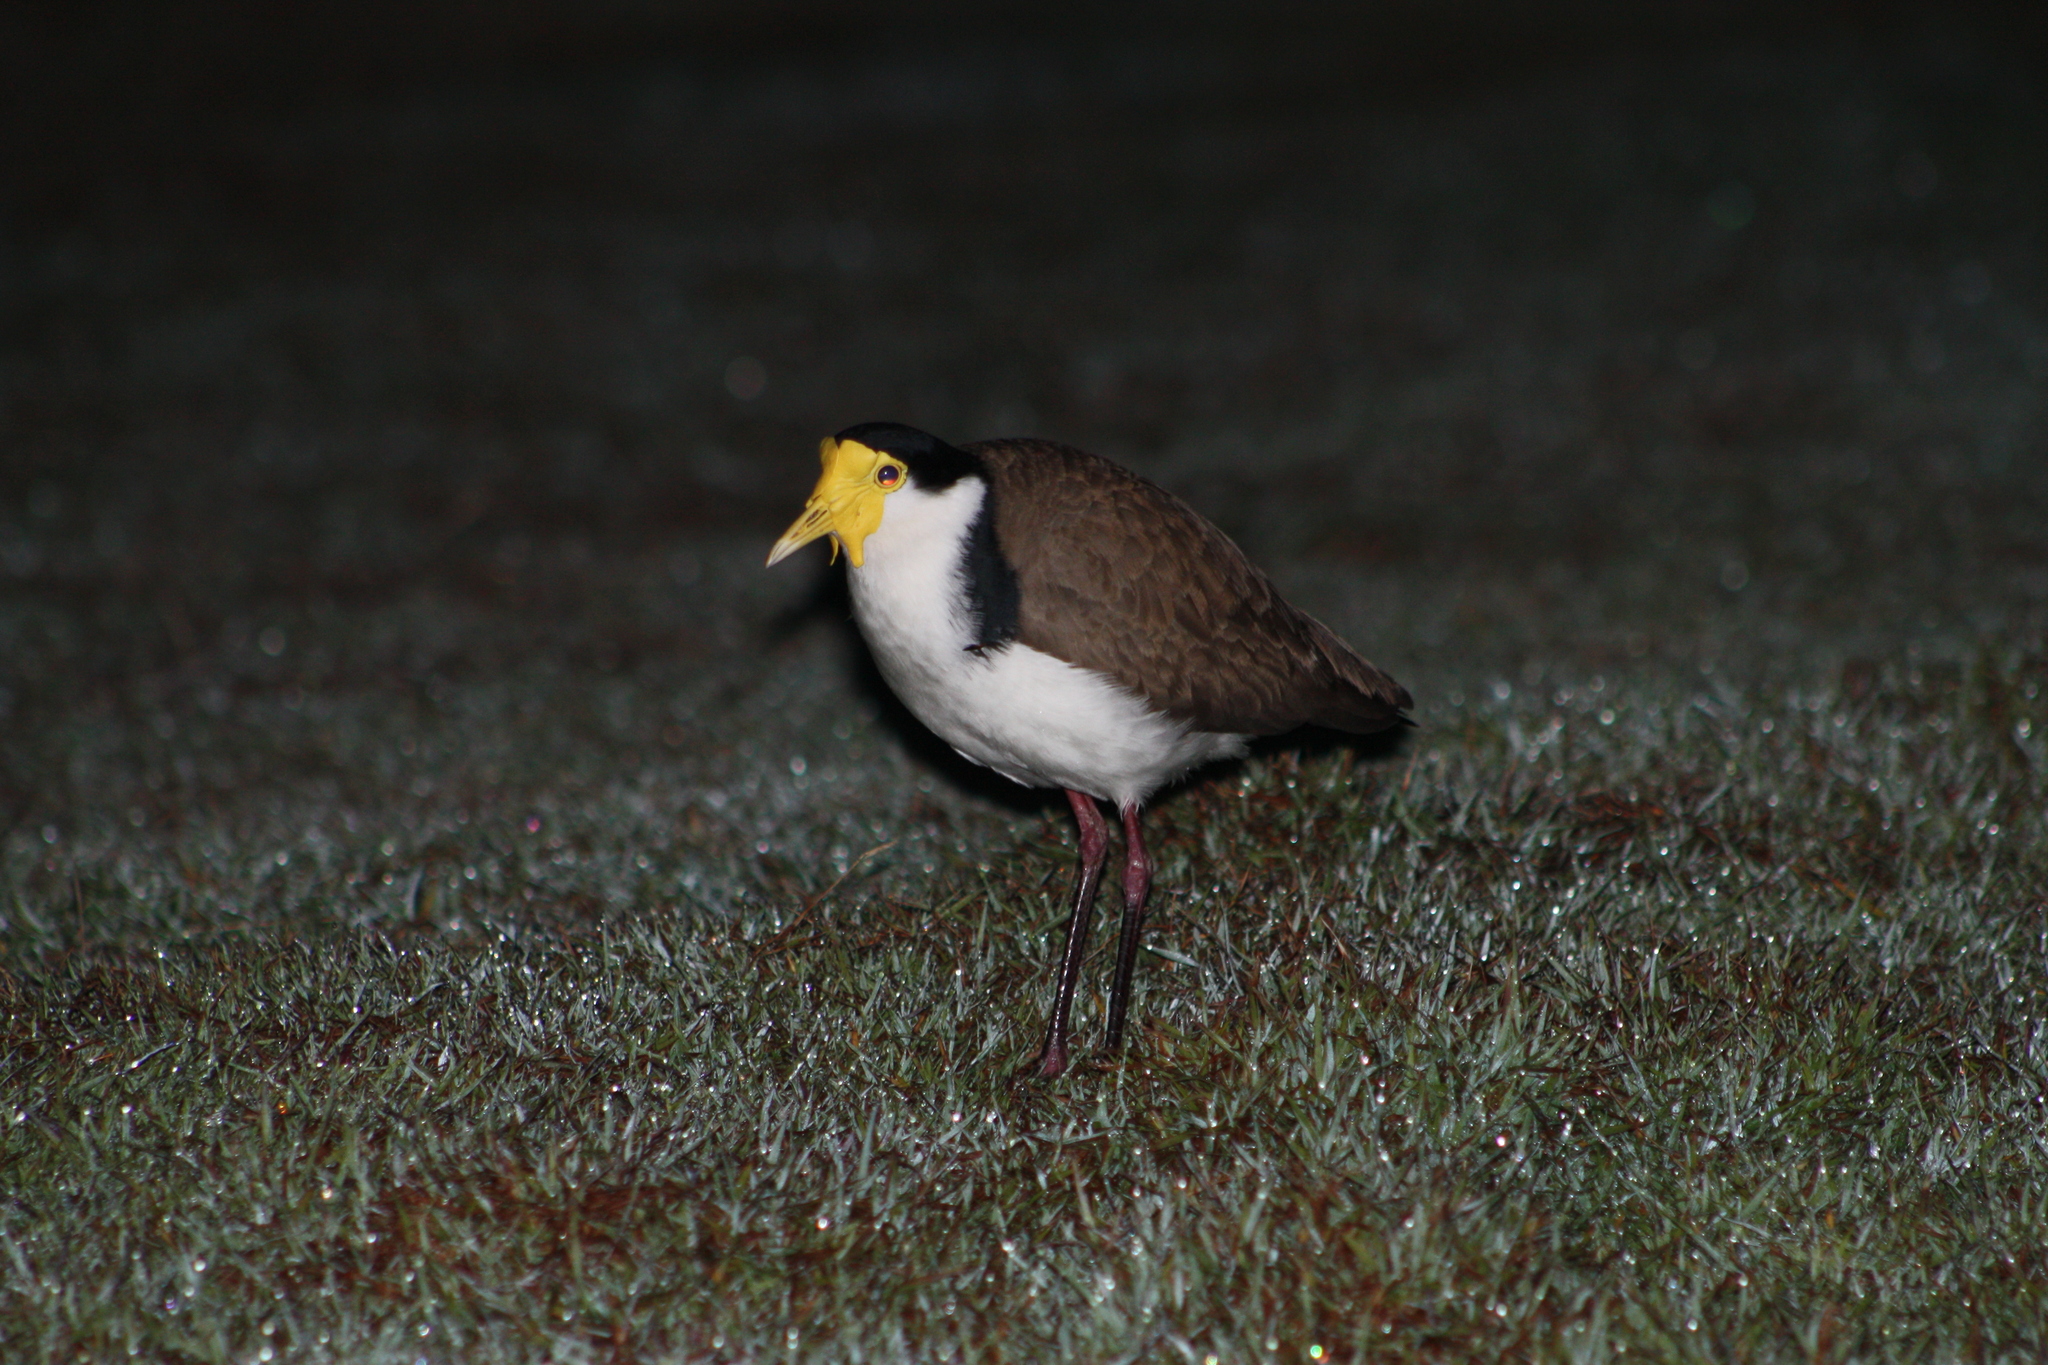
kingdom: Animalia
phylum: Chordata
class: Aves
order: Charadriiformes
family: Charadriidae
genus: Vanellus
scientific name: Vanellus miles
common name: Masked lapwing
